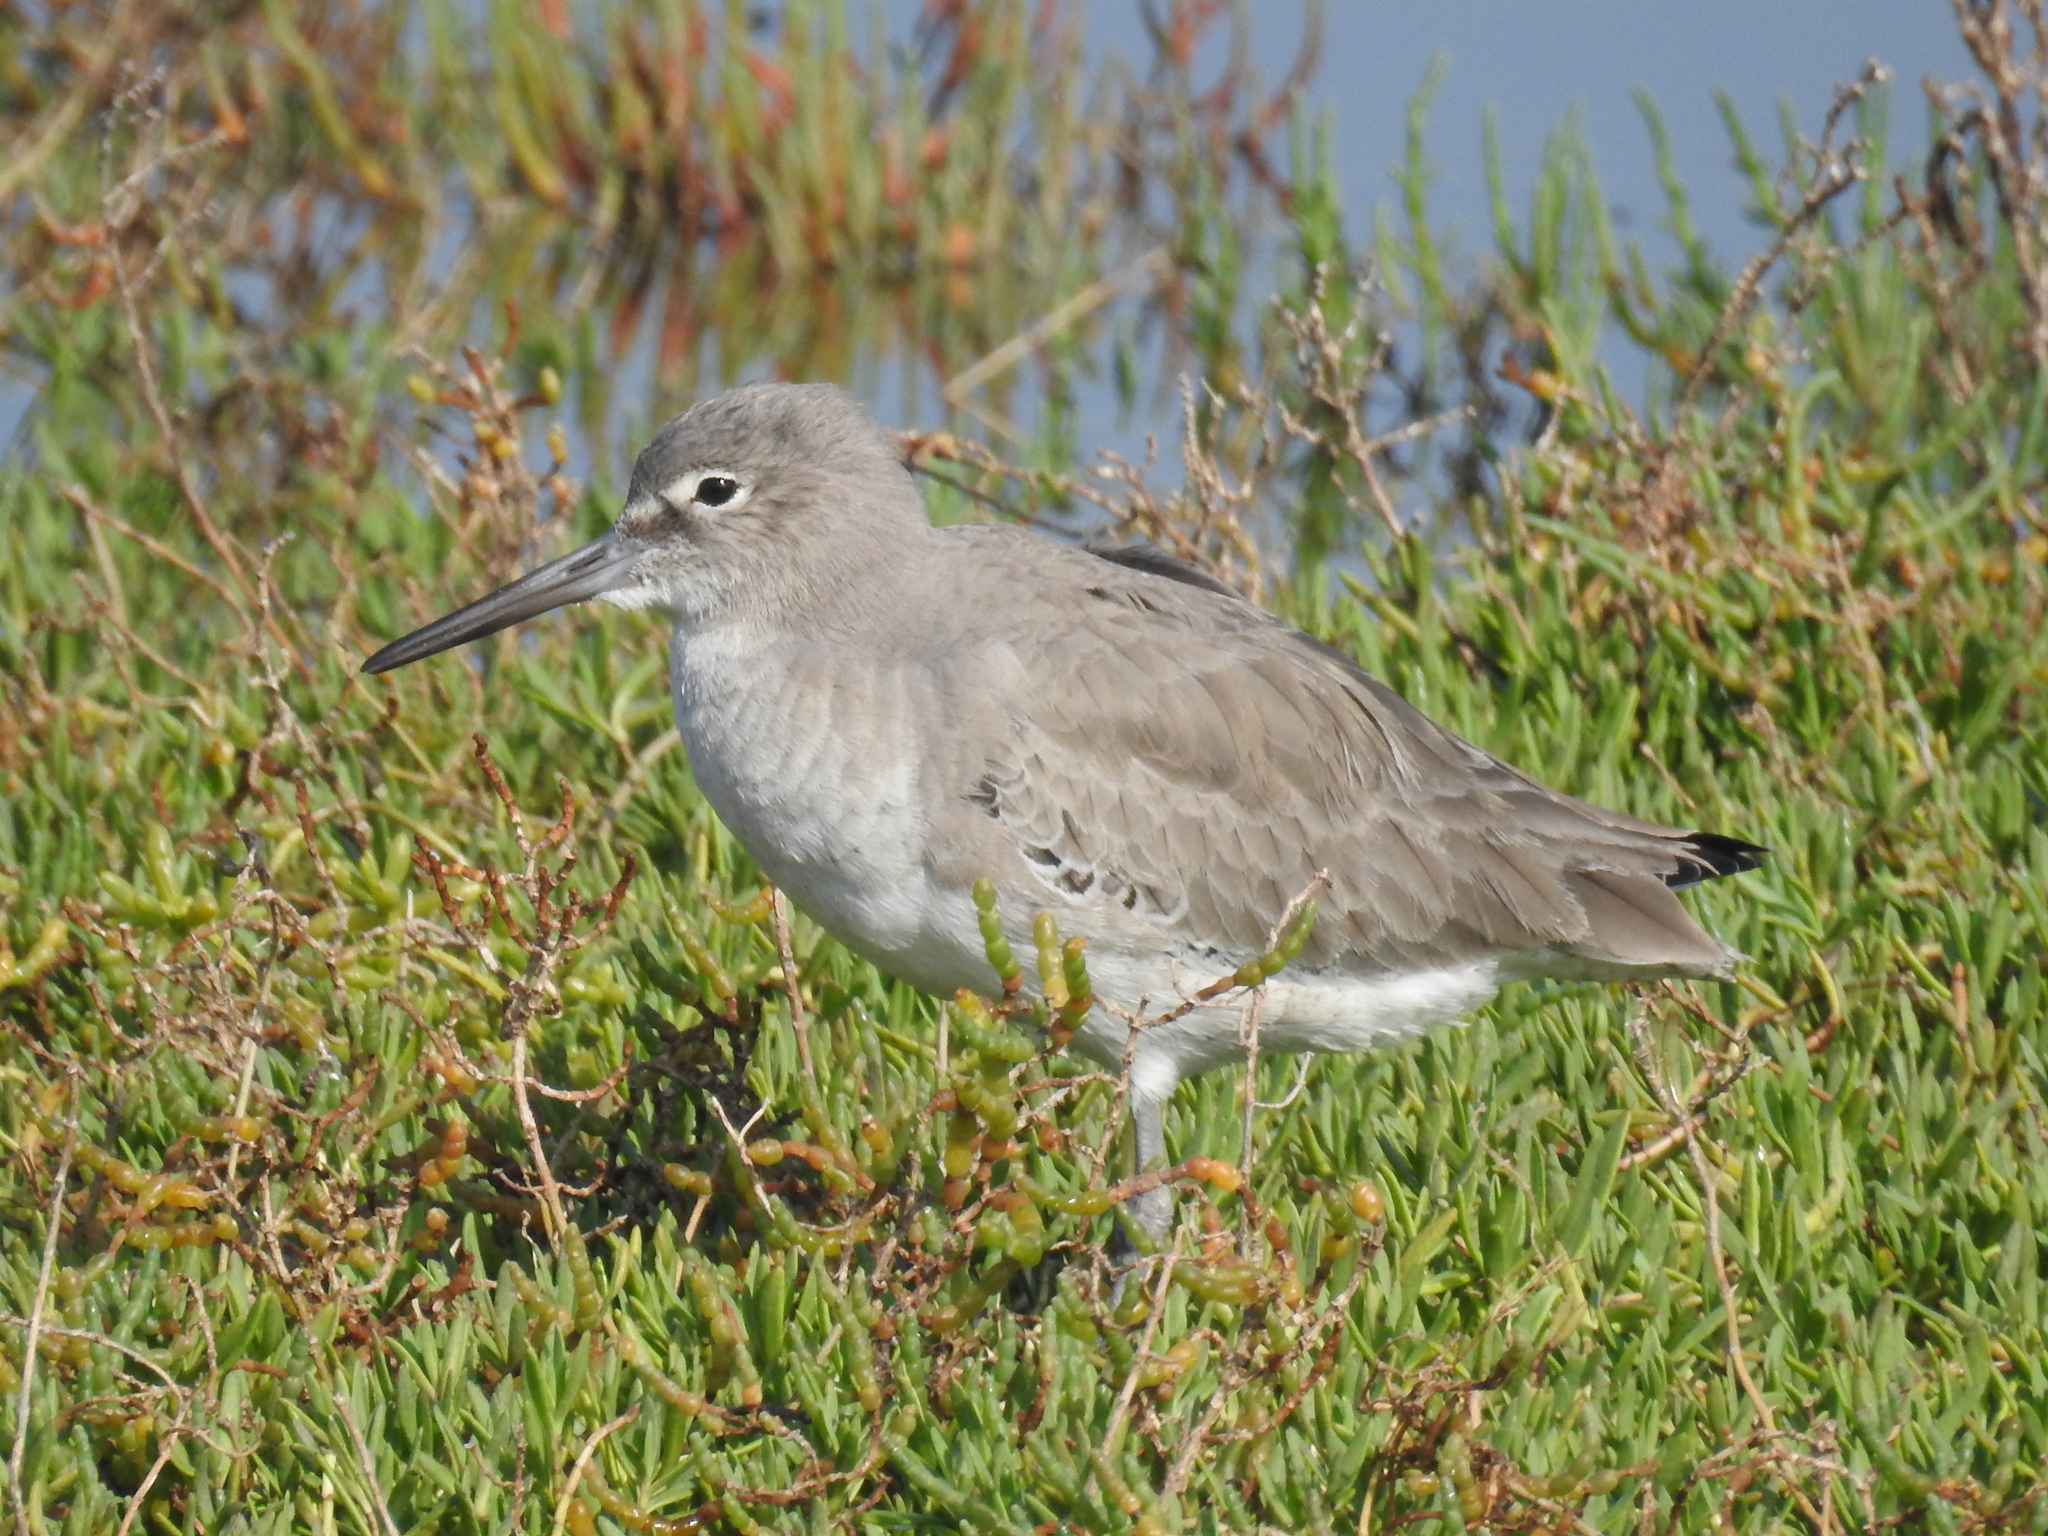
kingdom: Animalia
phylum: Chordata
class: Aves
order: Charadriiformes
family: Scolopacidae
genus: Tringa
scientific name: Tringa semipalmata
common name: Willet
